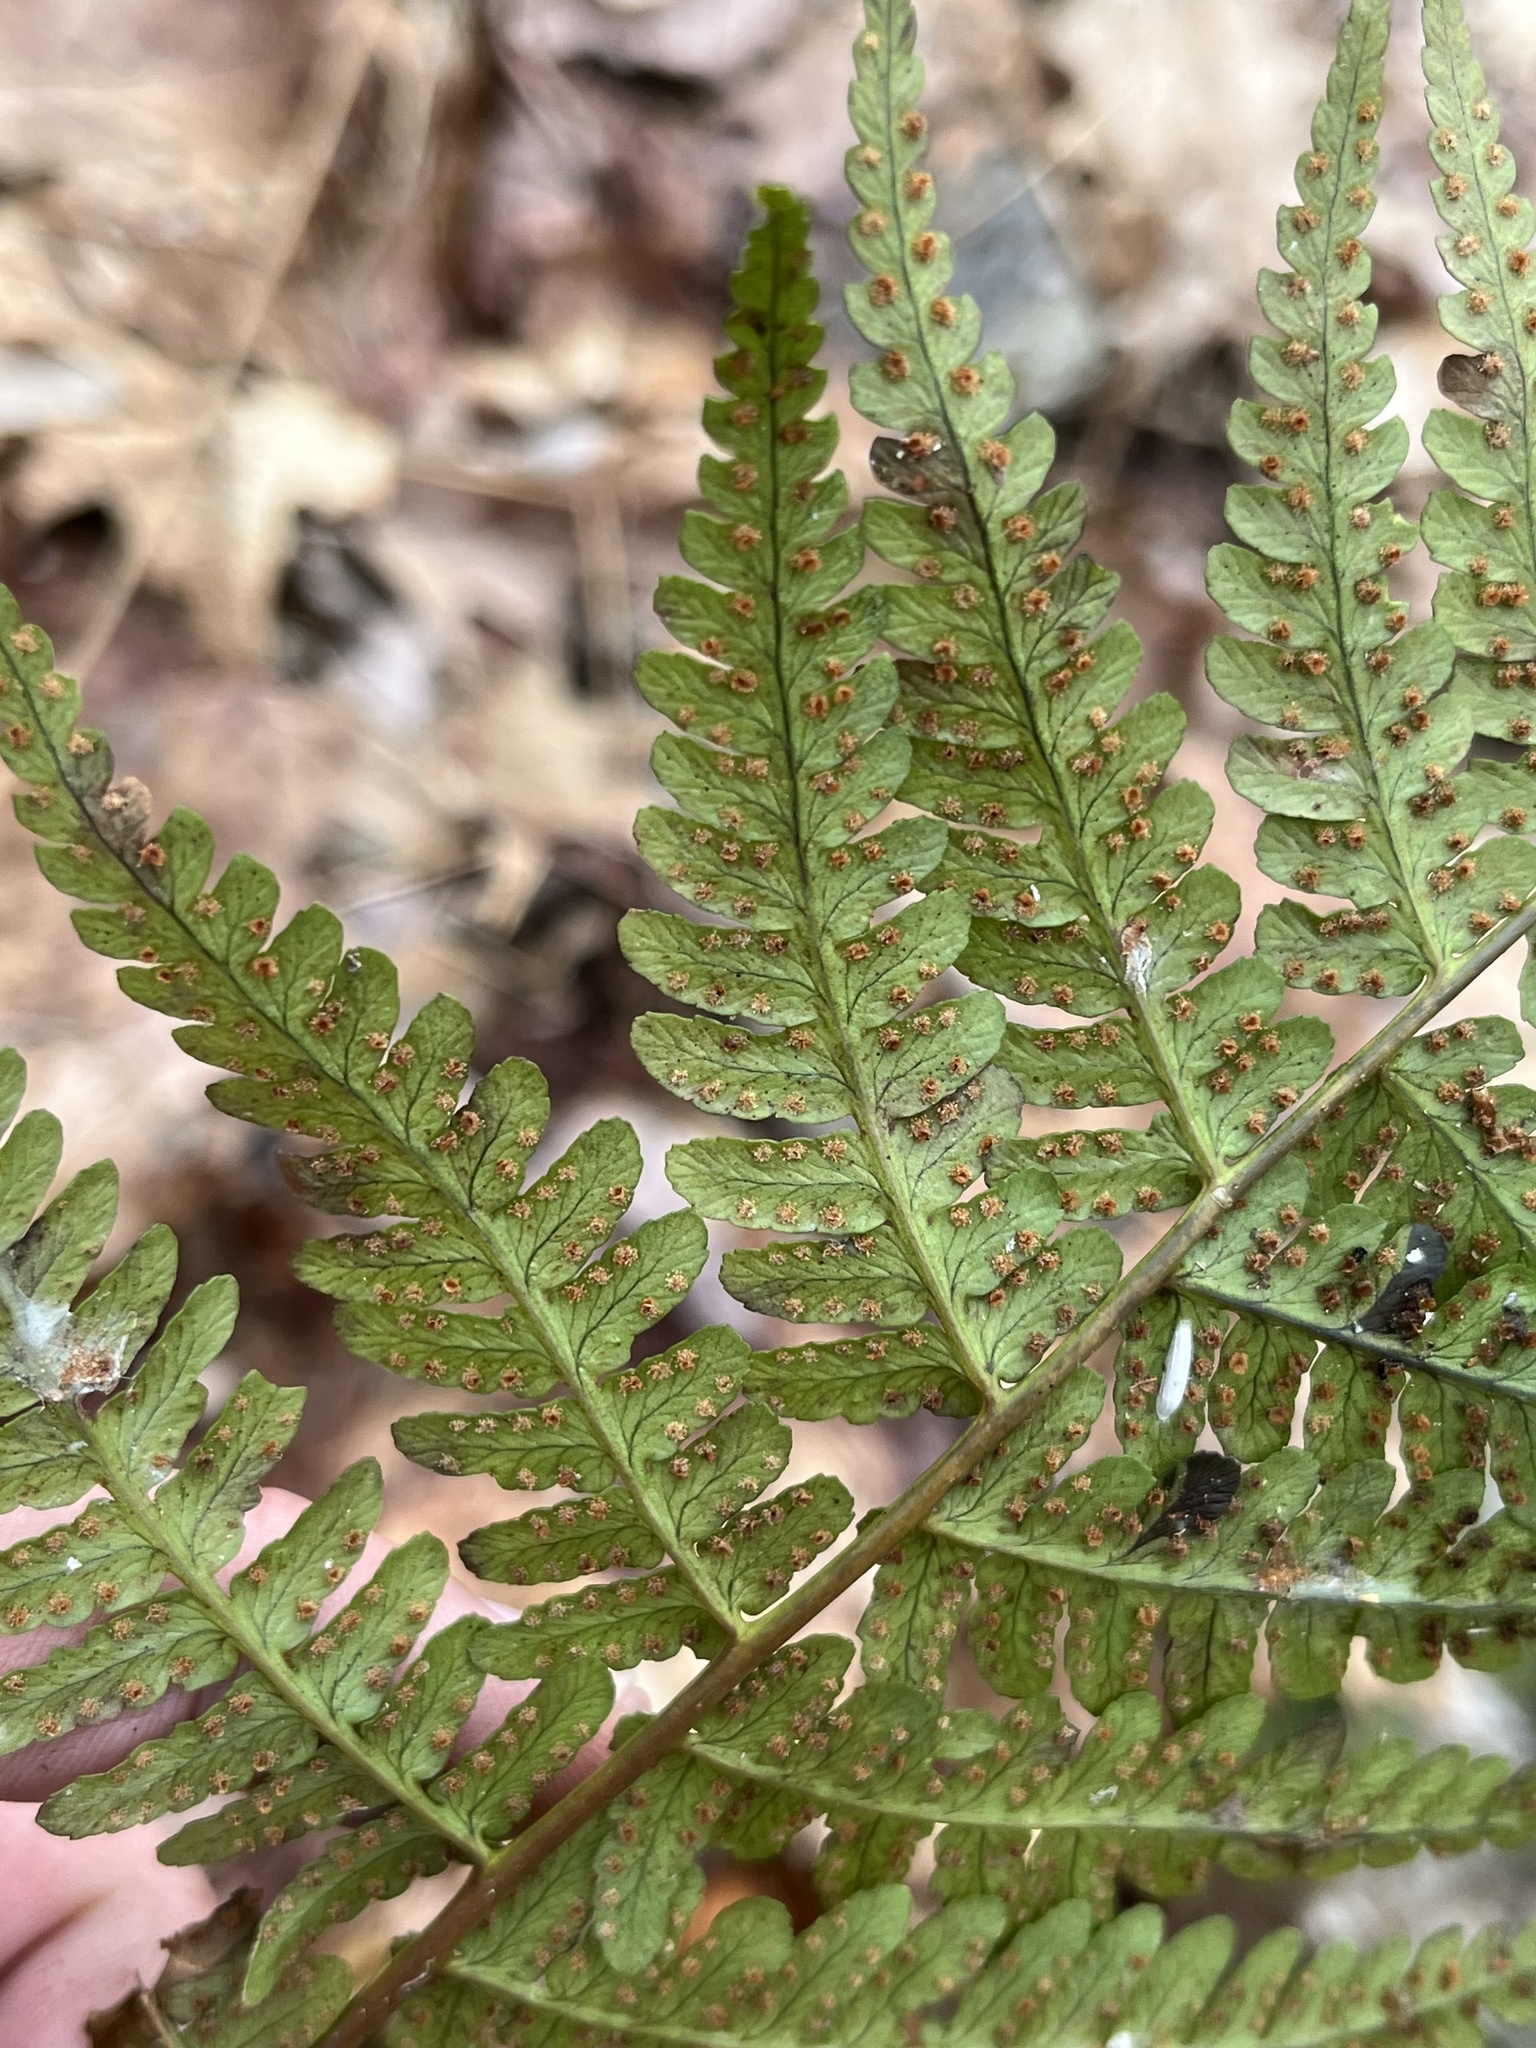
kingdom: Plantae
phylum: Tracheophyta
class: Polypodiopsida
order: Polypodiales
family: Dryopteridaceae
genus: Dryopteris
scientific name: Dryopteris marginalis
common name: Marginal wood fern
